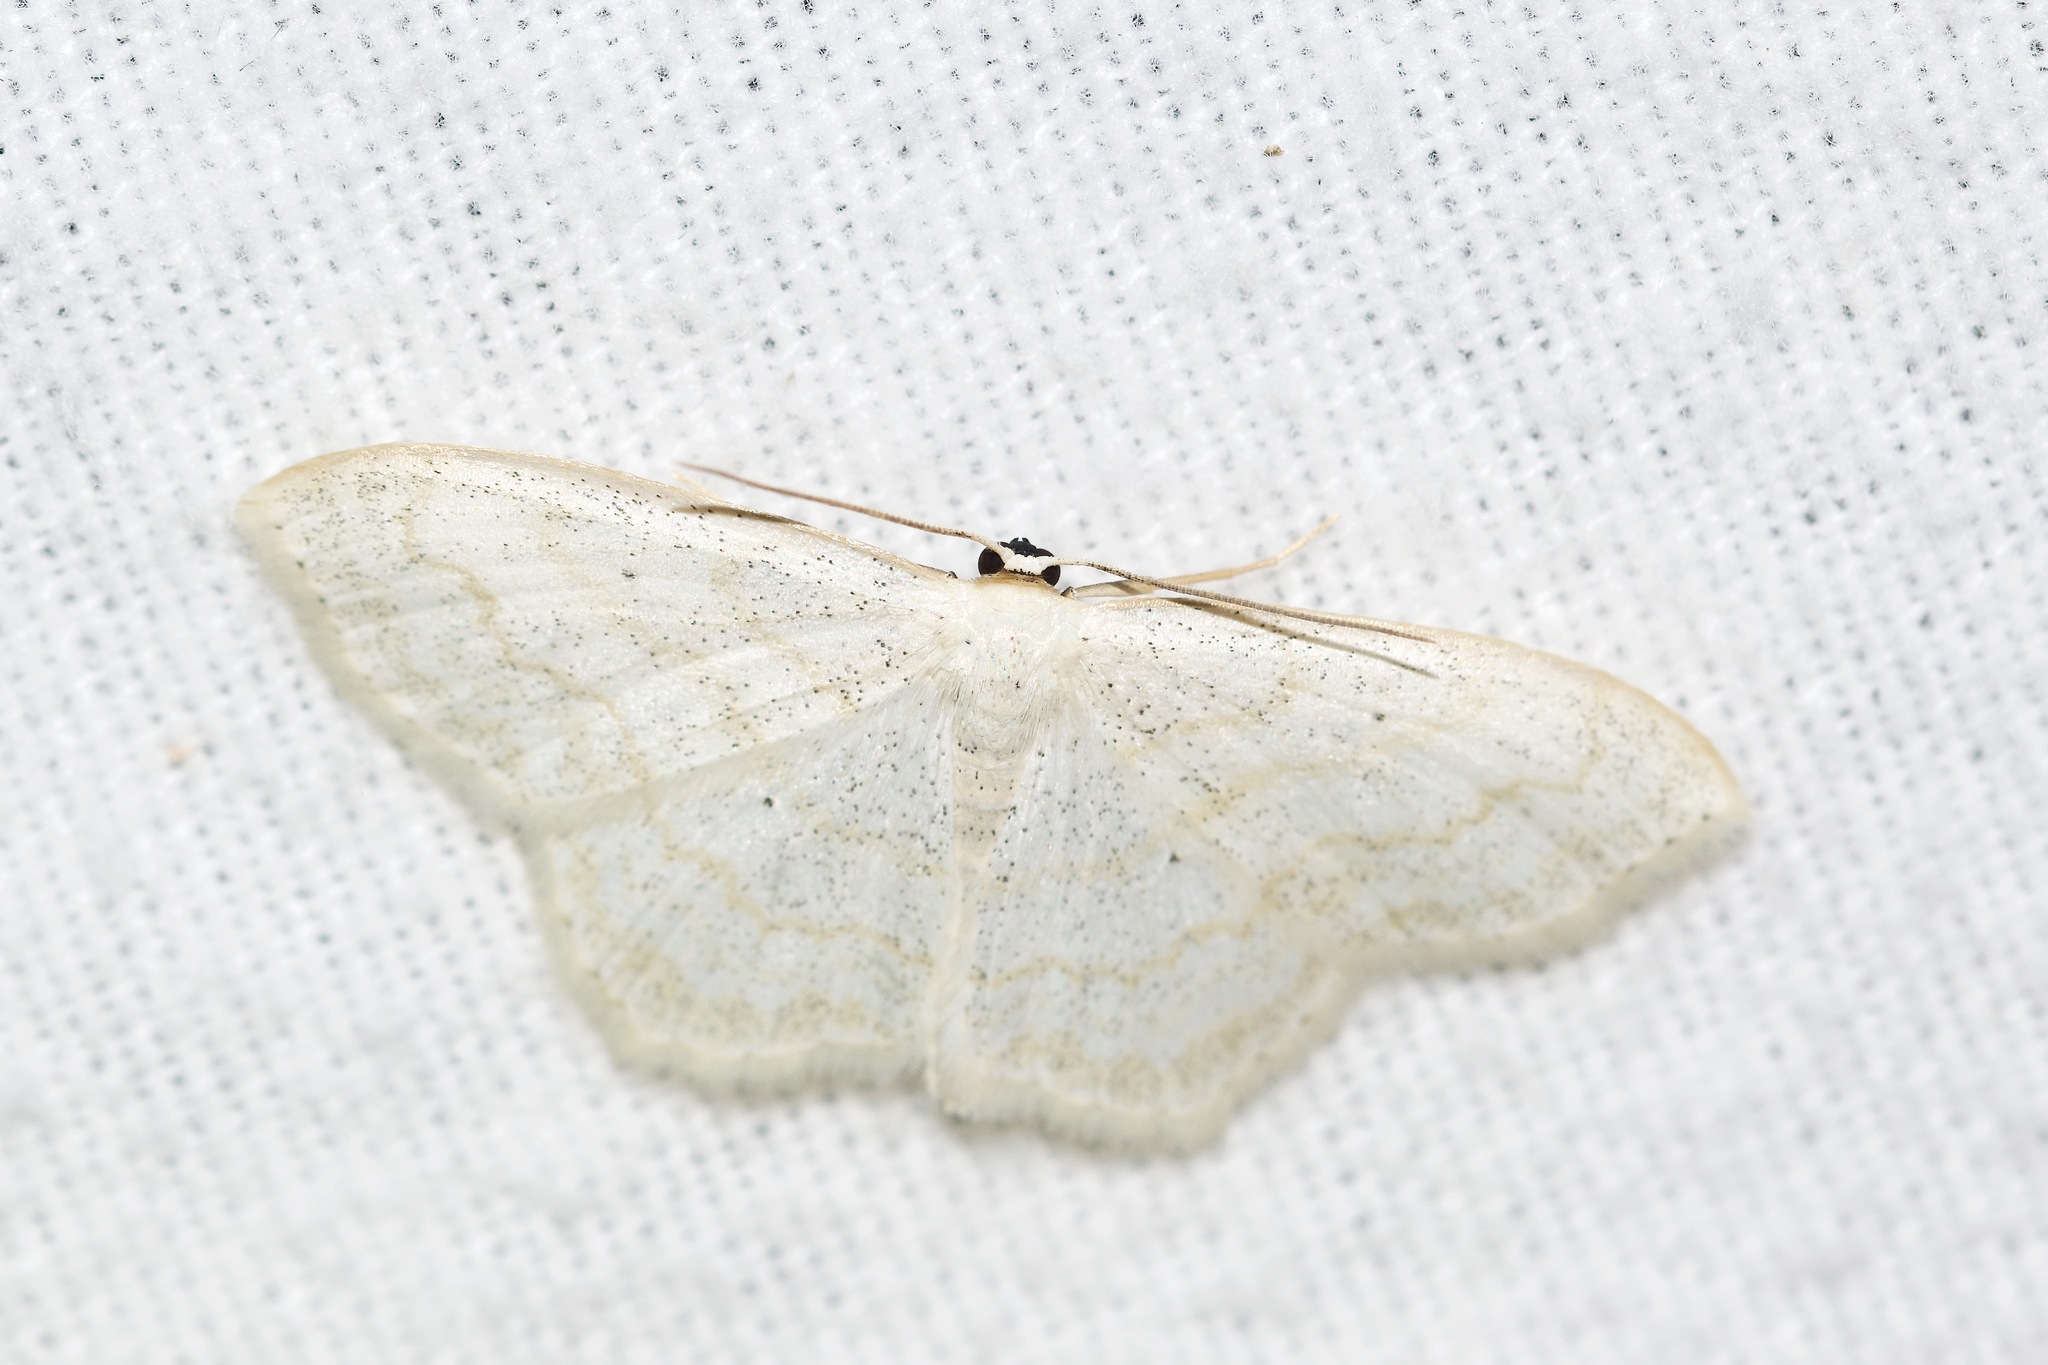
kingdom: Animalia
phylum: Arthropoda
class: Insecta
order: Lepidoptera
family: Geometridae
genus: Scopula
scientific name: Scopula limboundata
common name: Large lace border
